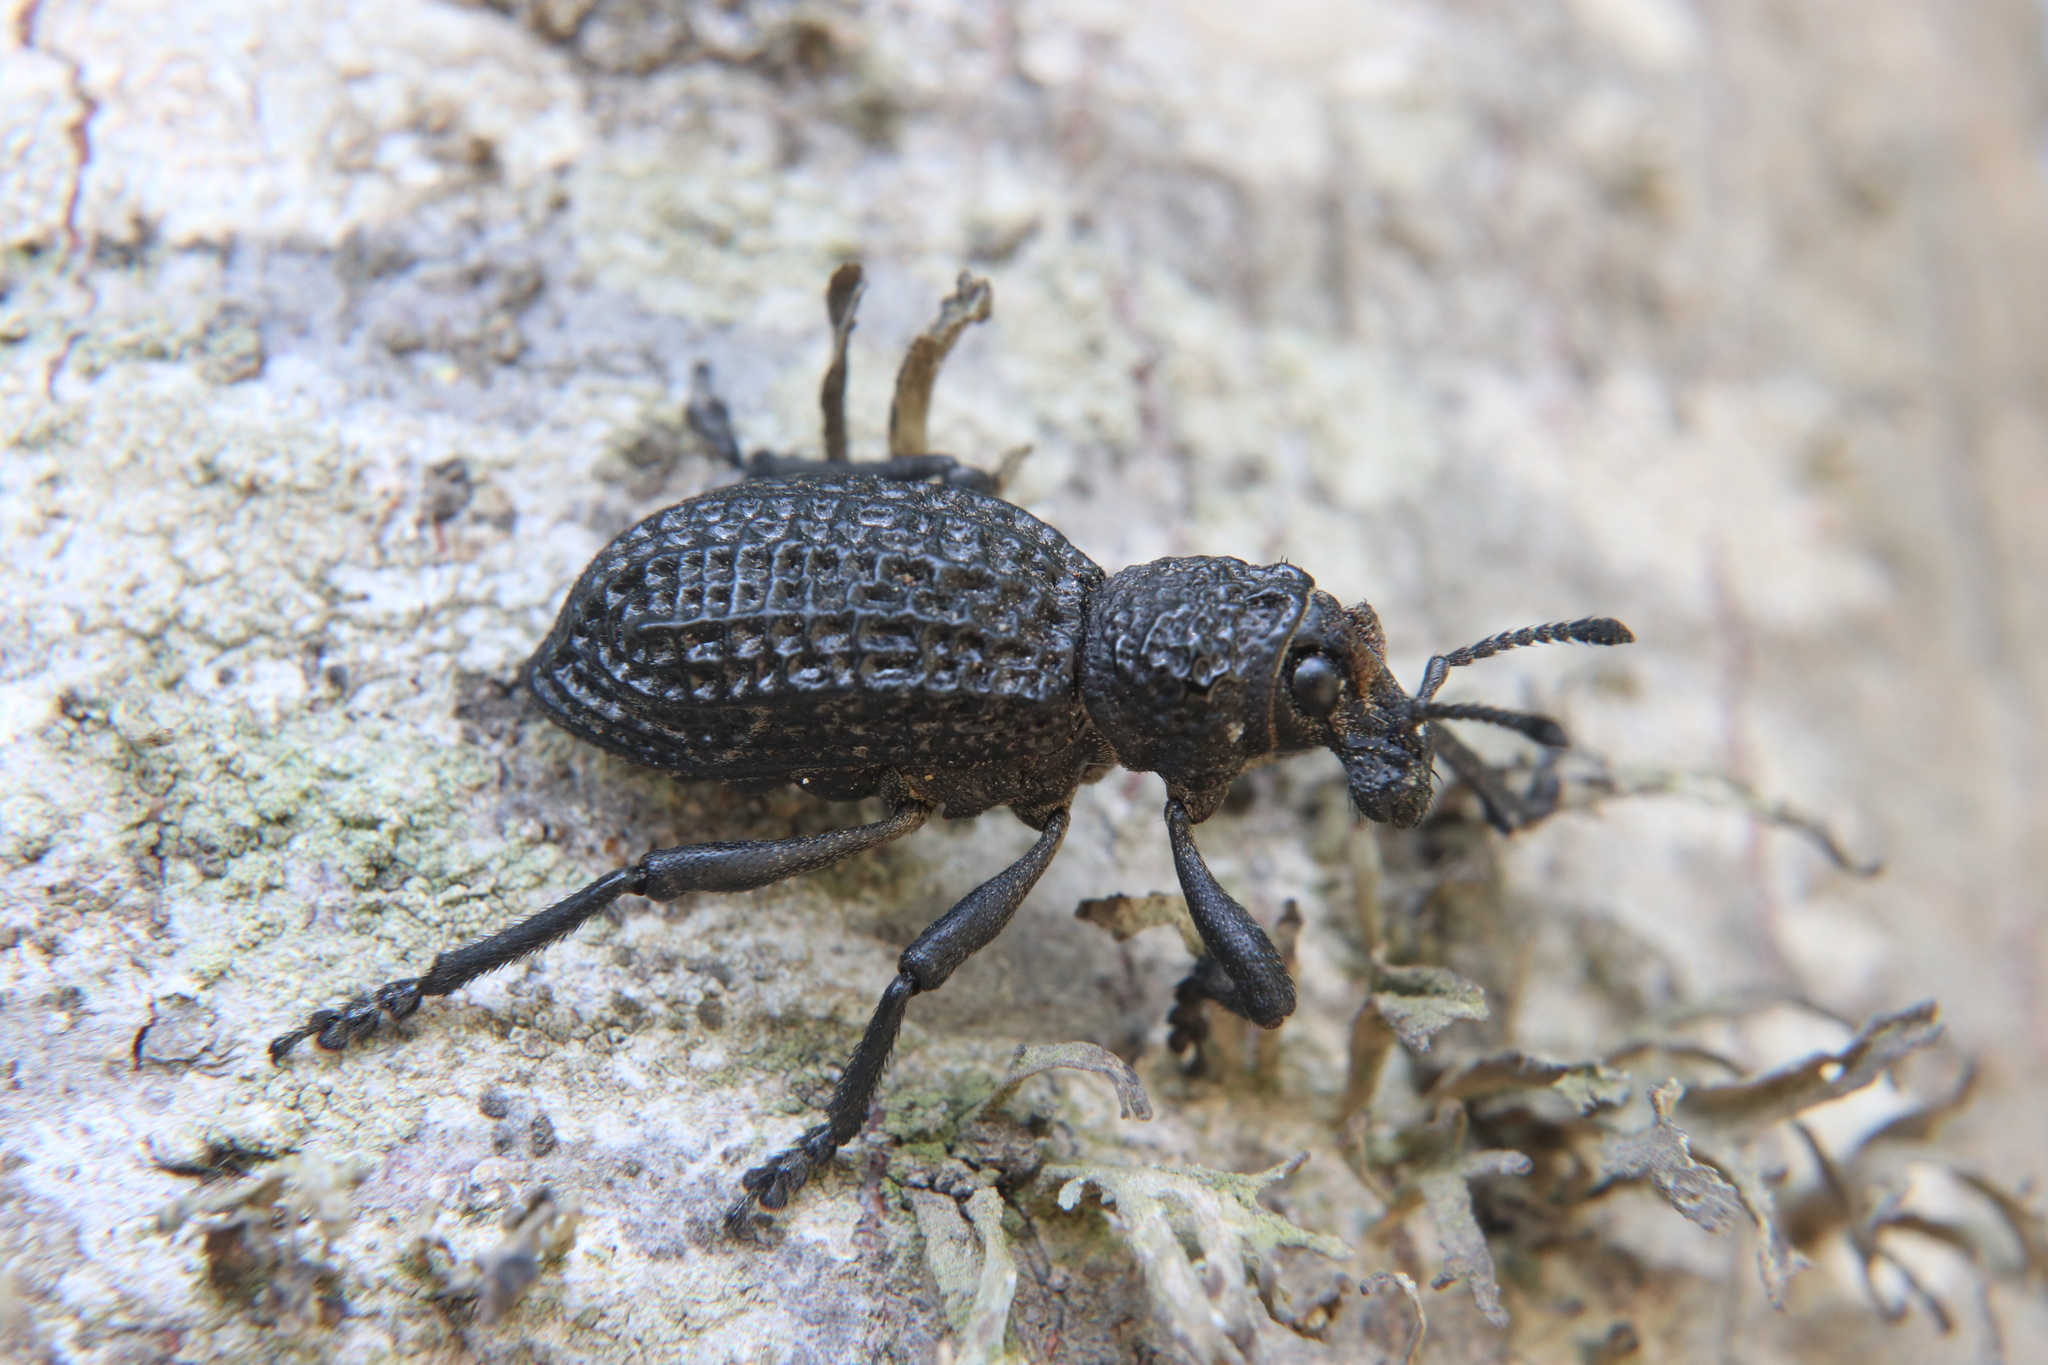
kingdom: Animalia
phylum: Arthropoda
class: Insecta
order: Coleoptera
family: Curculionidae
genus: Aegorhinus
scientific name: Aegorhinus superciliosus
